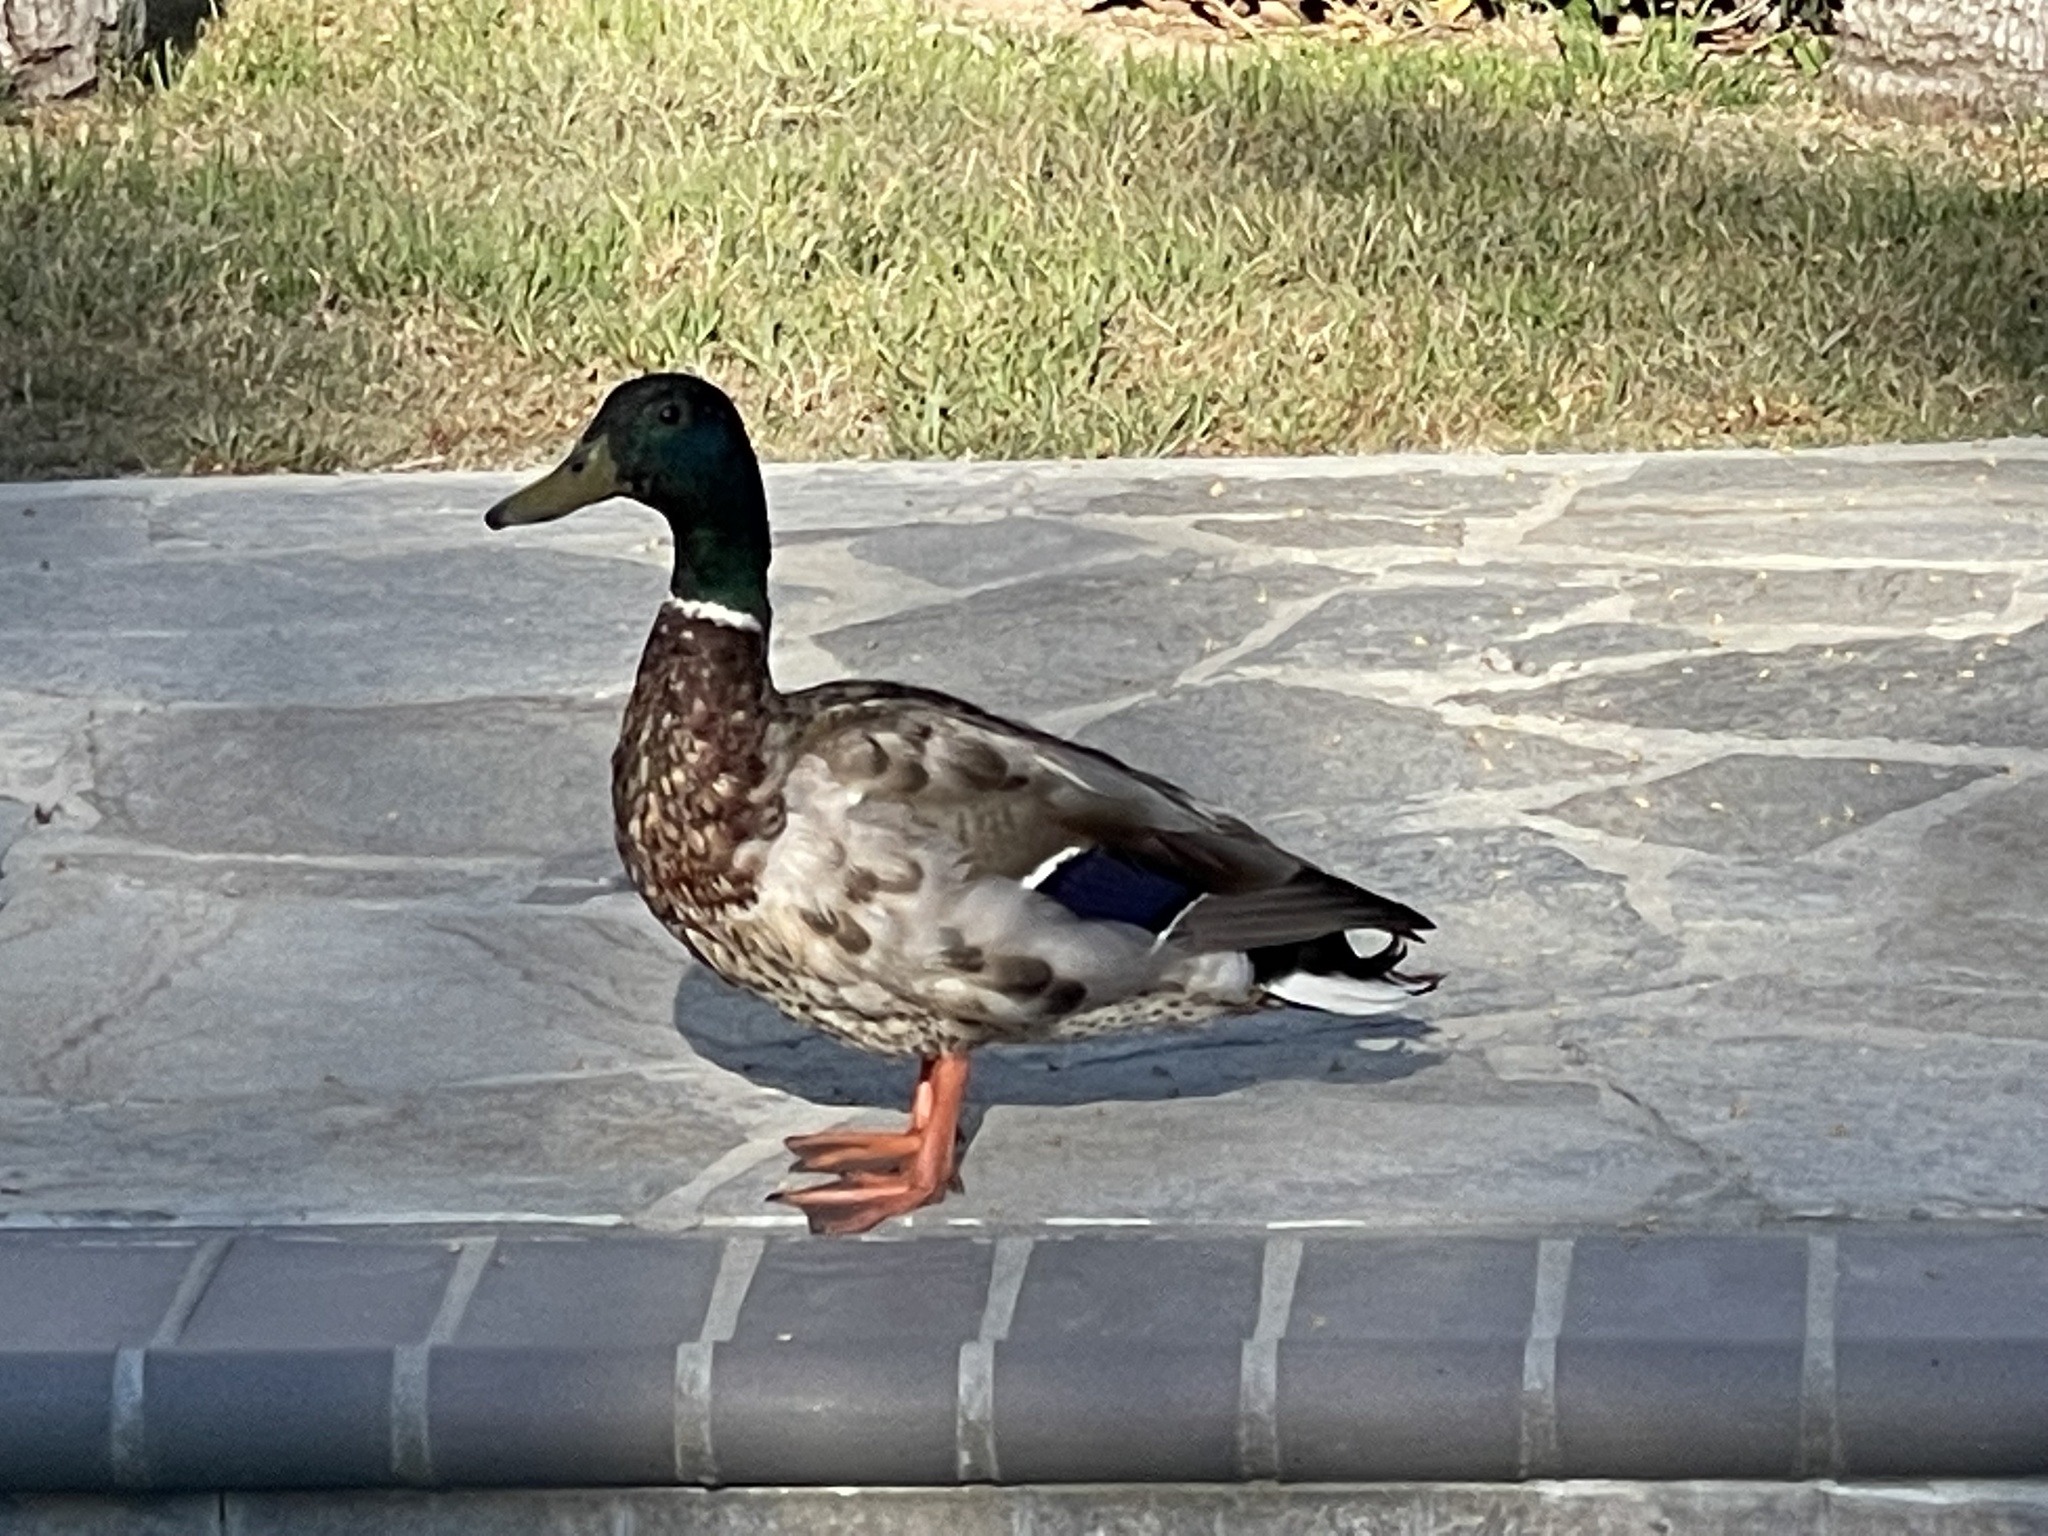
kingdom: Animalia
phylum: Chordata
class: Aves
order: Anseriformes
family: Anatidae
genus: Anas
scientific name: Anas platyrhynchos
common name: Mallard
